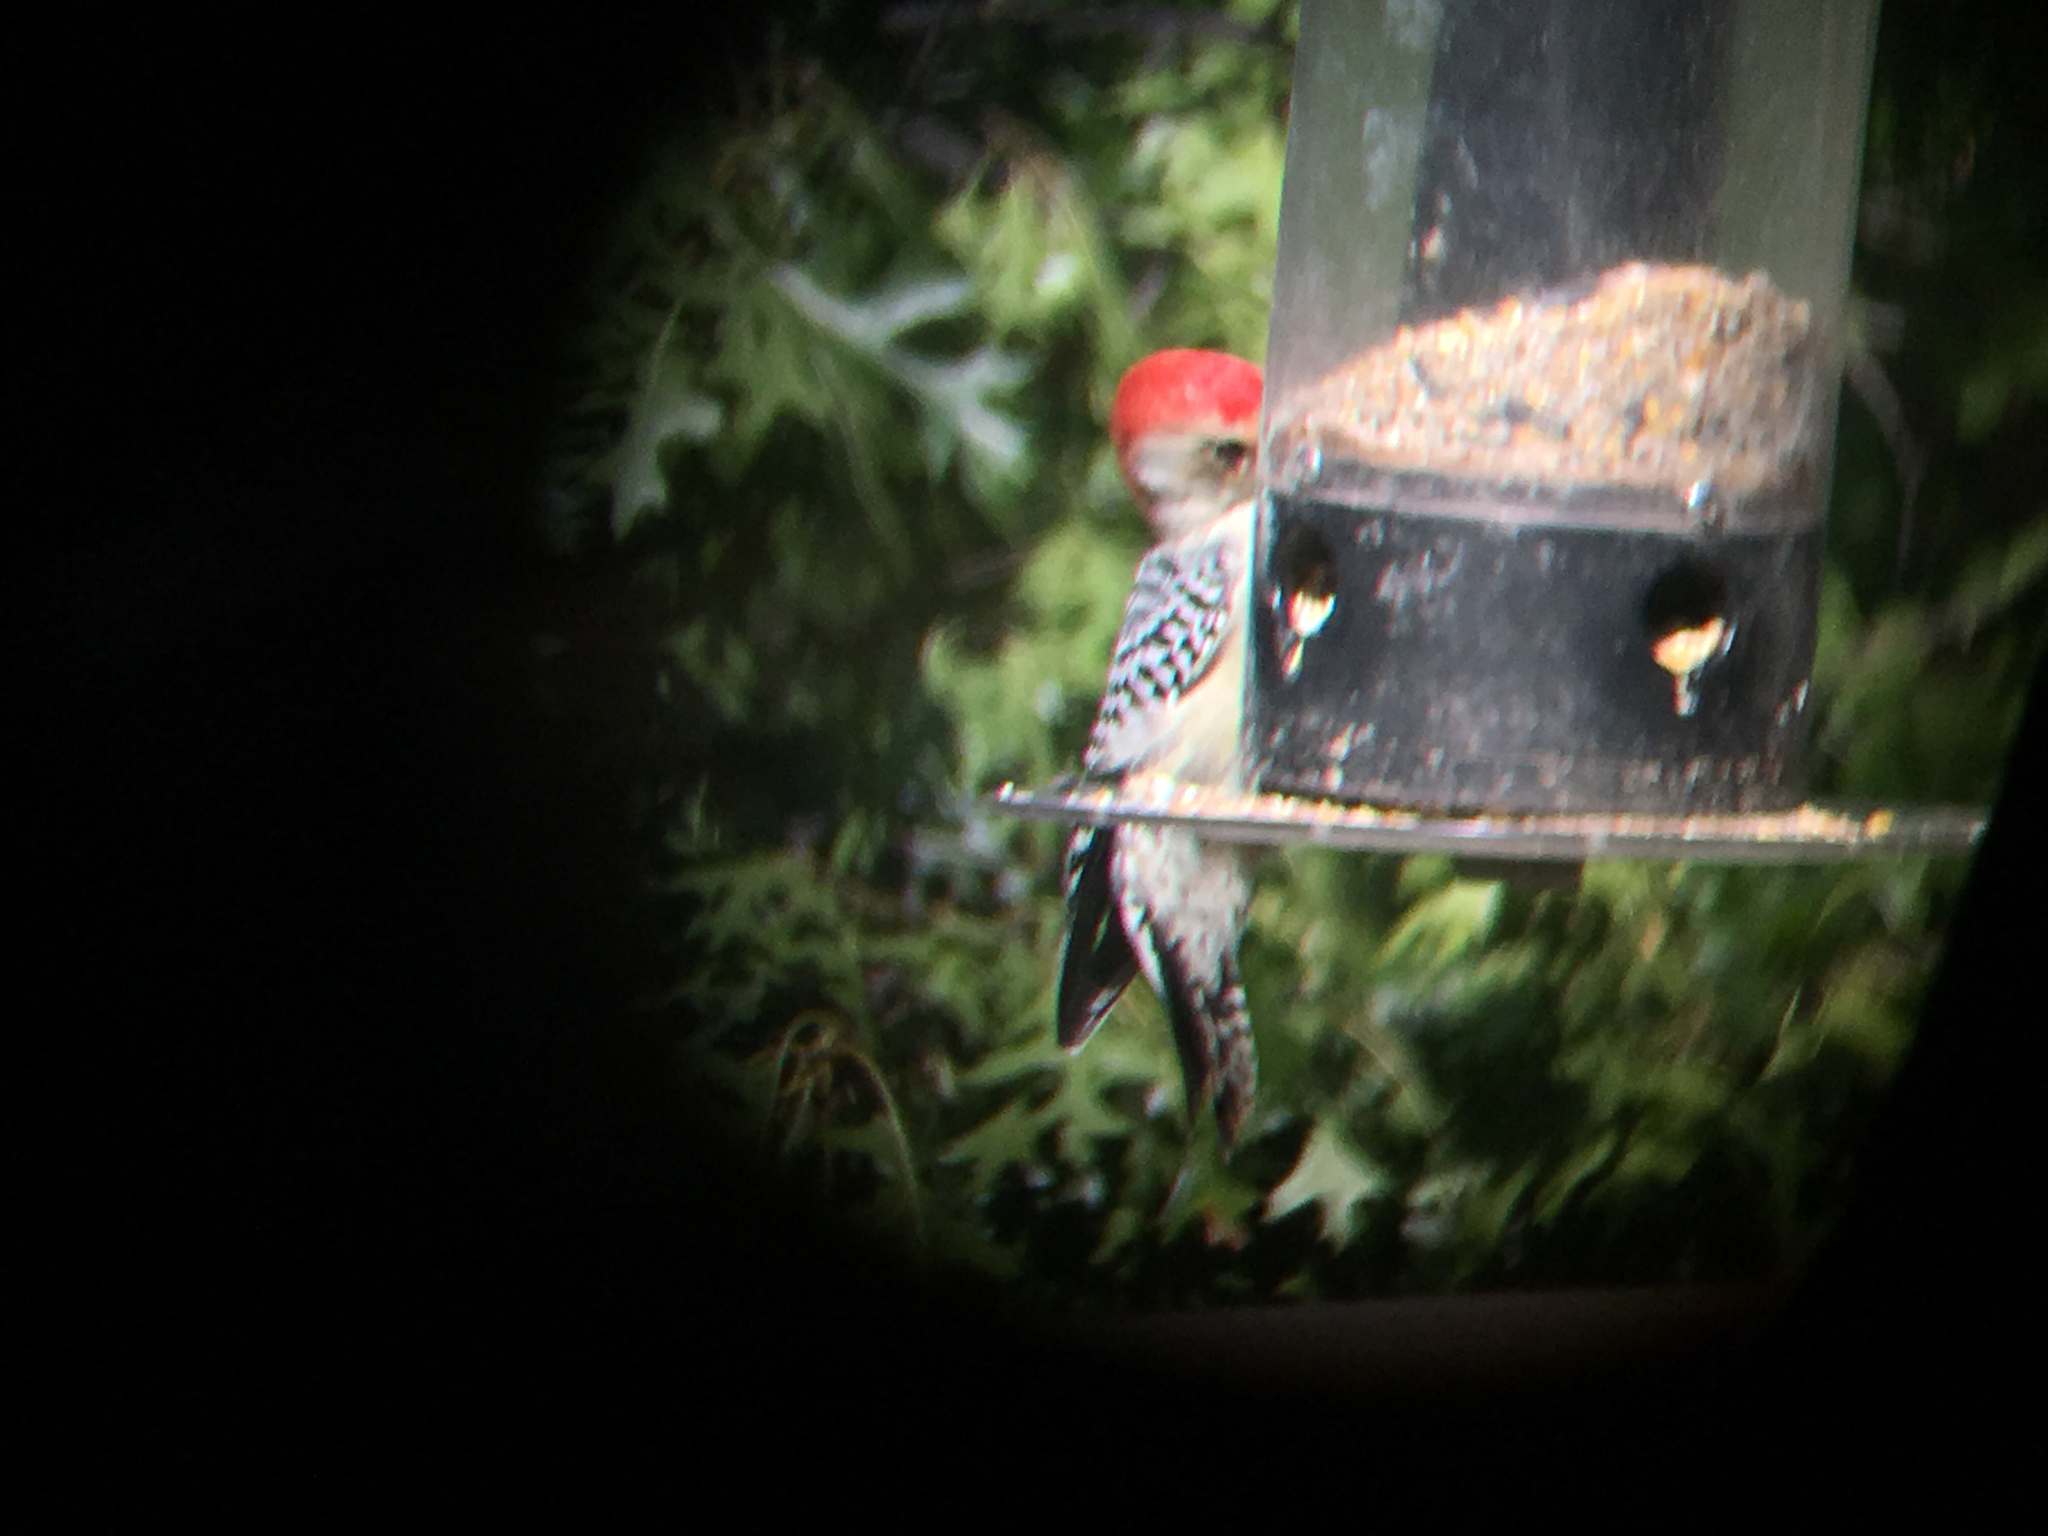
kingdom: Animalia
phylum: Chordata
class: Aves
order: Piciformes
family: Picidae
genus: Melanerpes
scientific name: Melanerpes carolinus
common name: Red-bellied woodpecker
